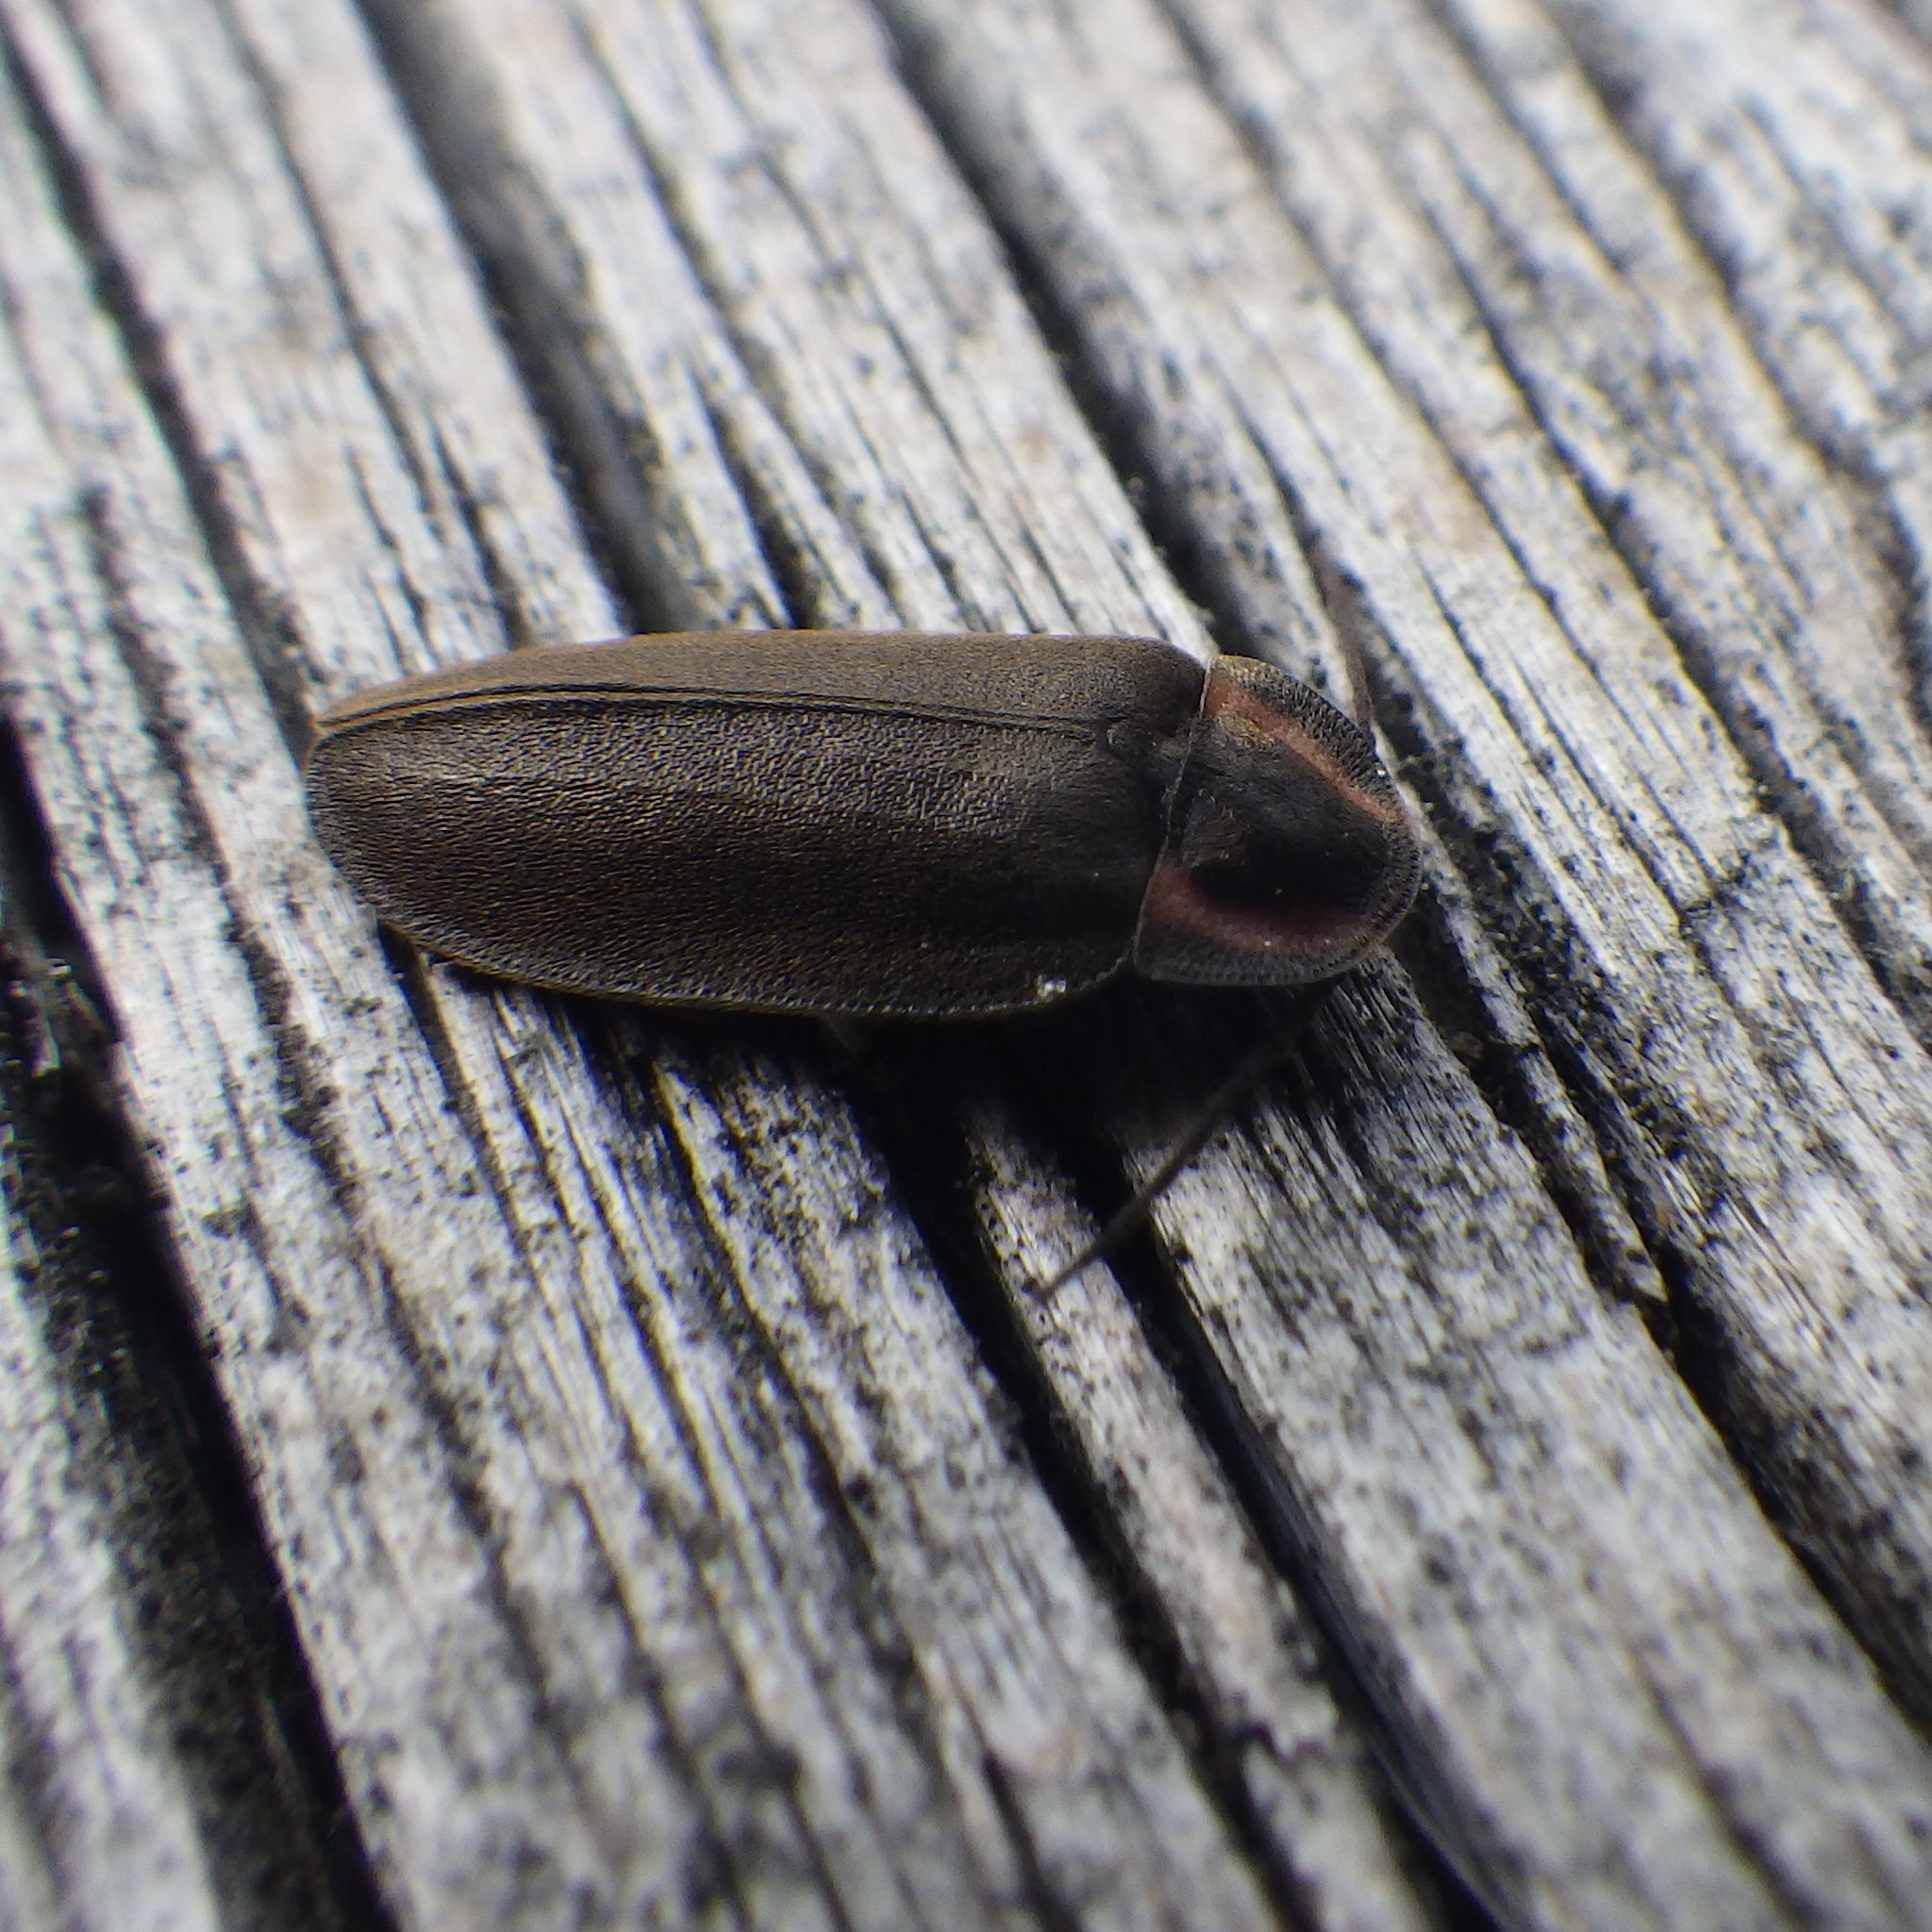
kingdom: Animalia
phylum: Arthropoda
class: Insecta
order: Coleoptera
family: Lampyridae
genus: Photinus
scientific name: Photinus corrusca
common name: Winter firefly
